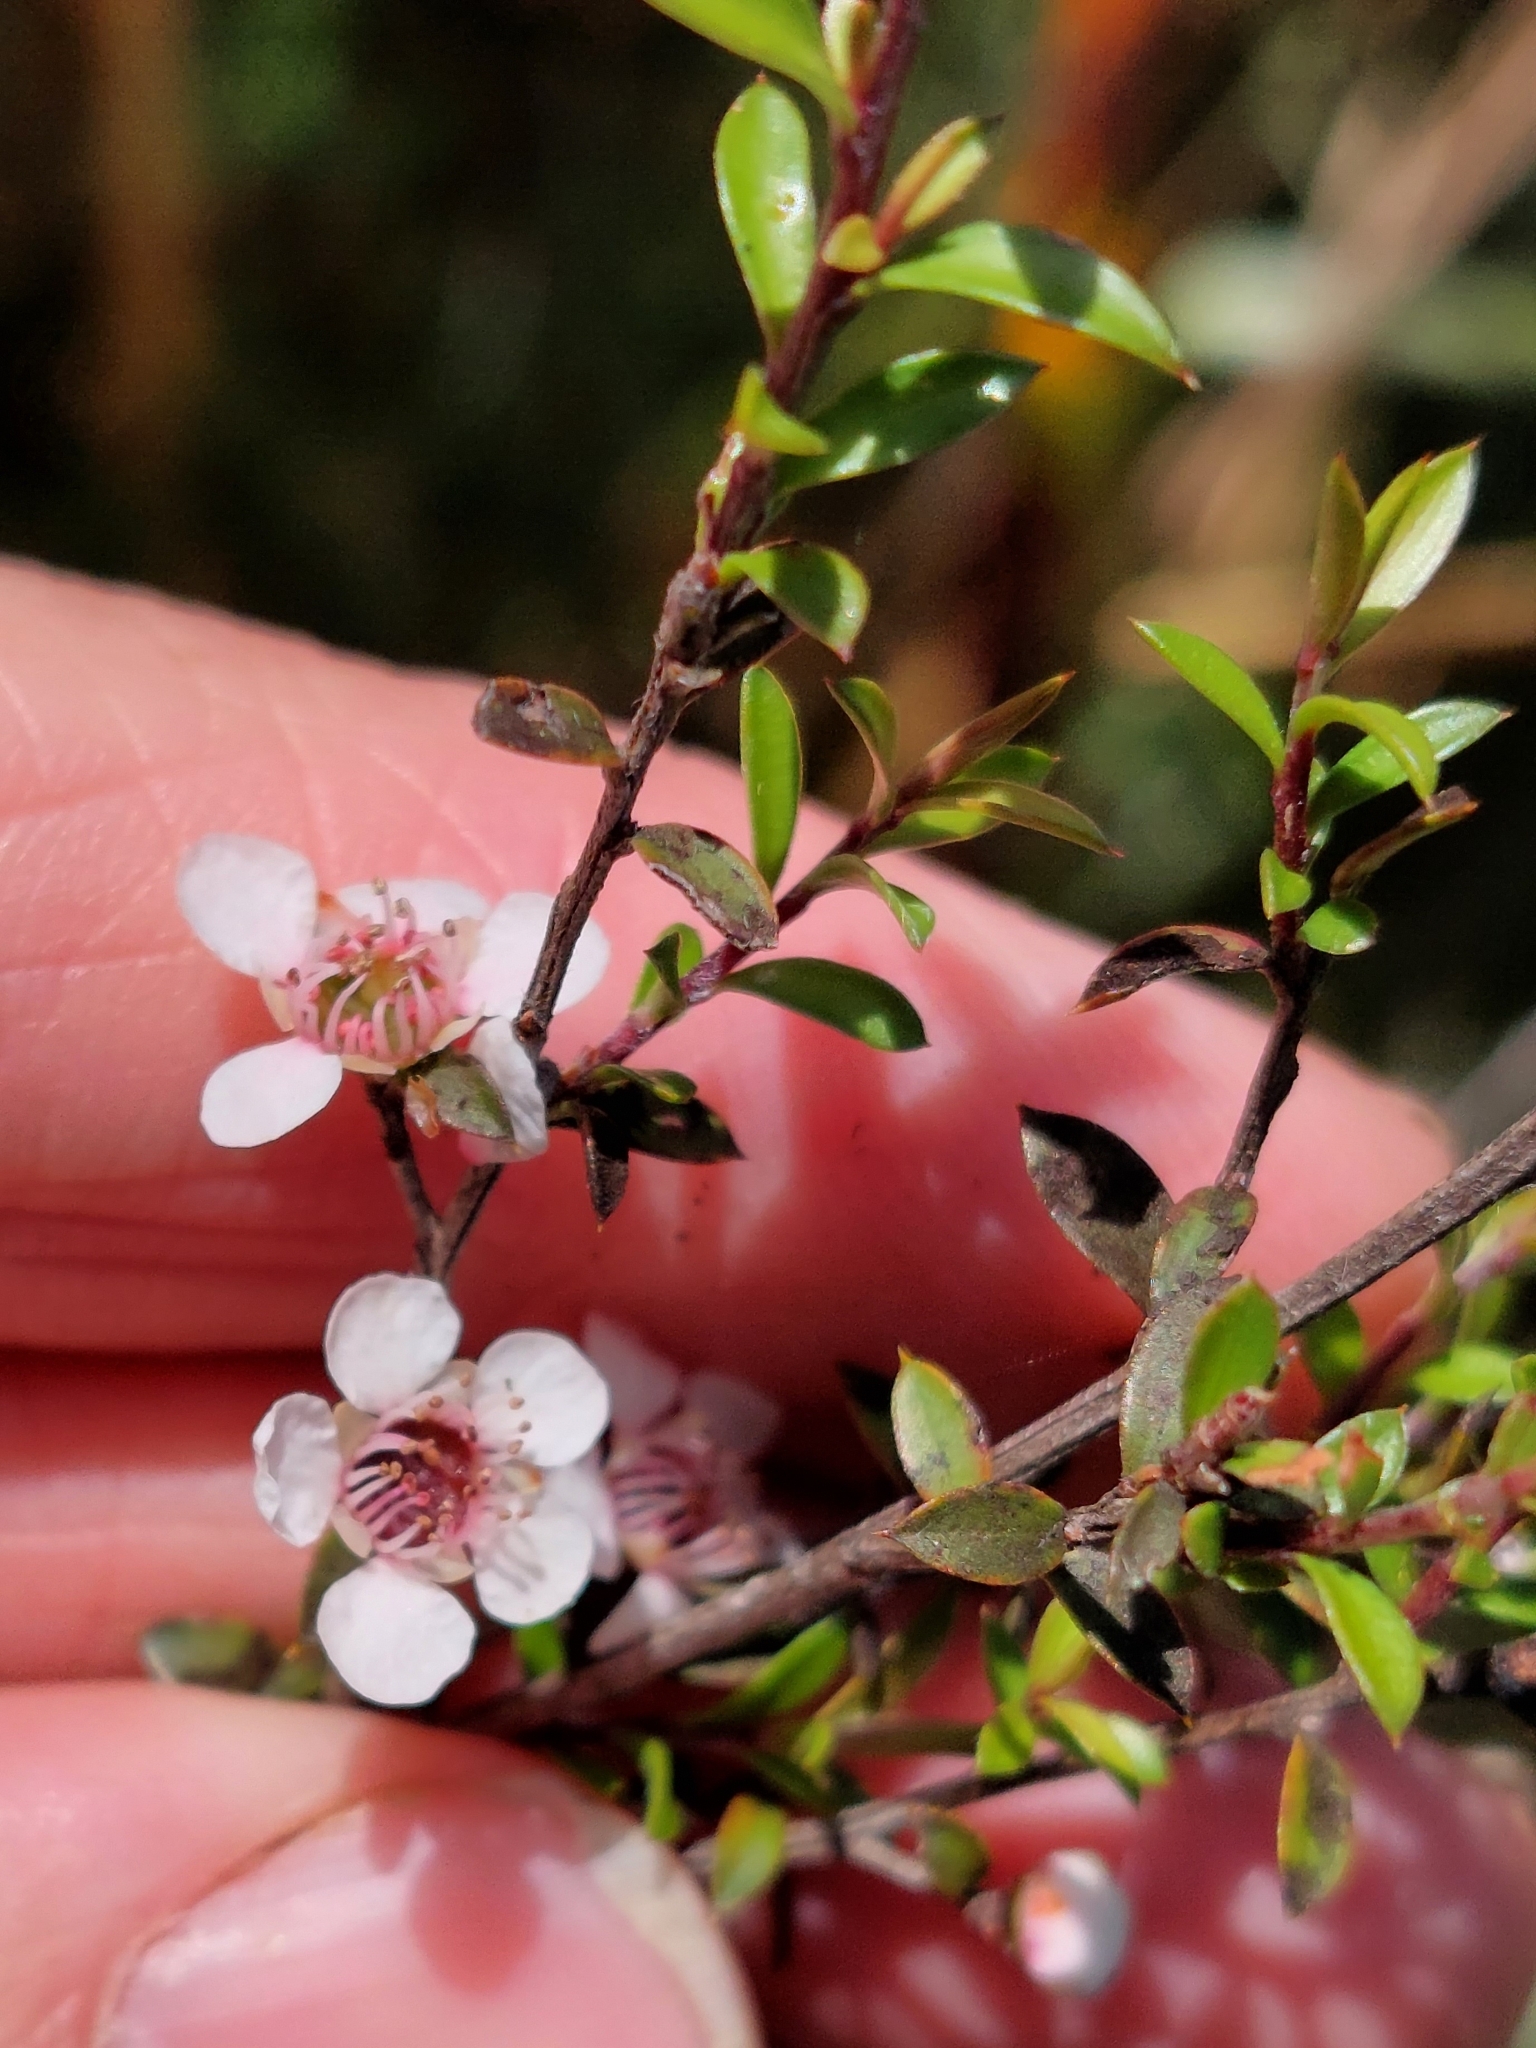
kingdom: Plantae
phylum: Tracheophyta
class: Magnoliopsida
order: Myrtales
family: Myrtaceae
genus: Leptospermum
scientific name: Leptospermum scoparium
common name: Broom tea-tree
